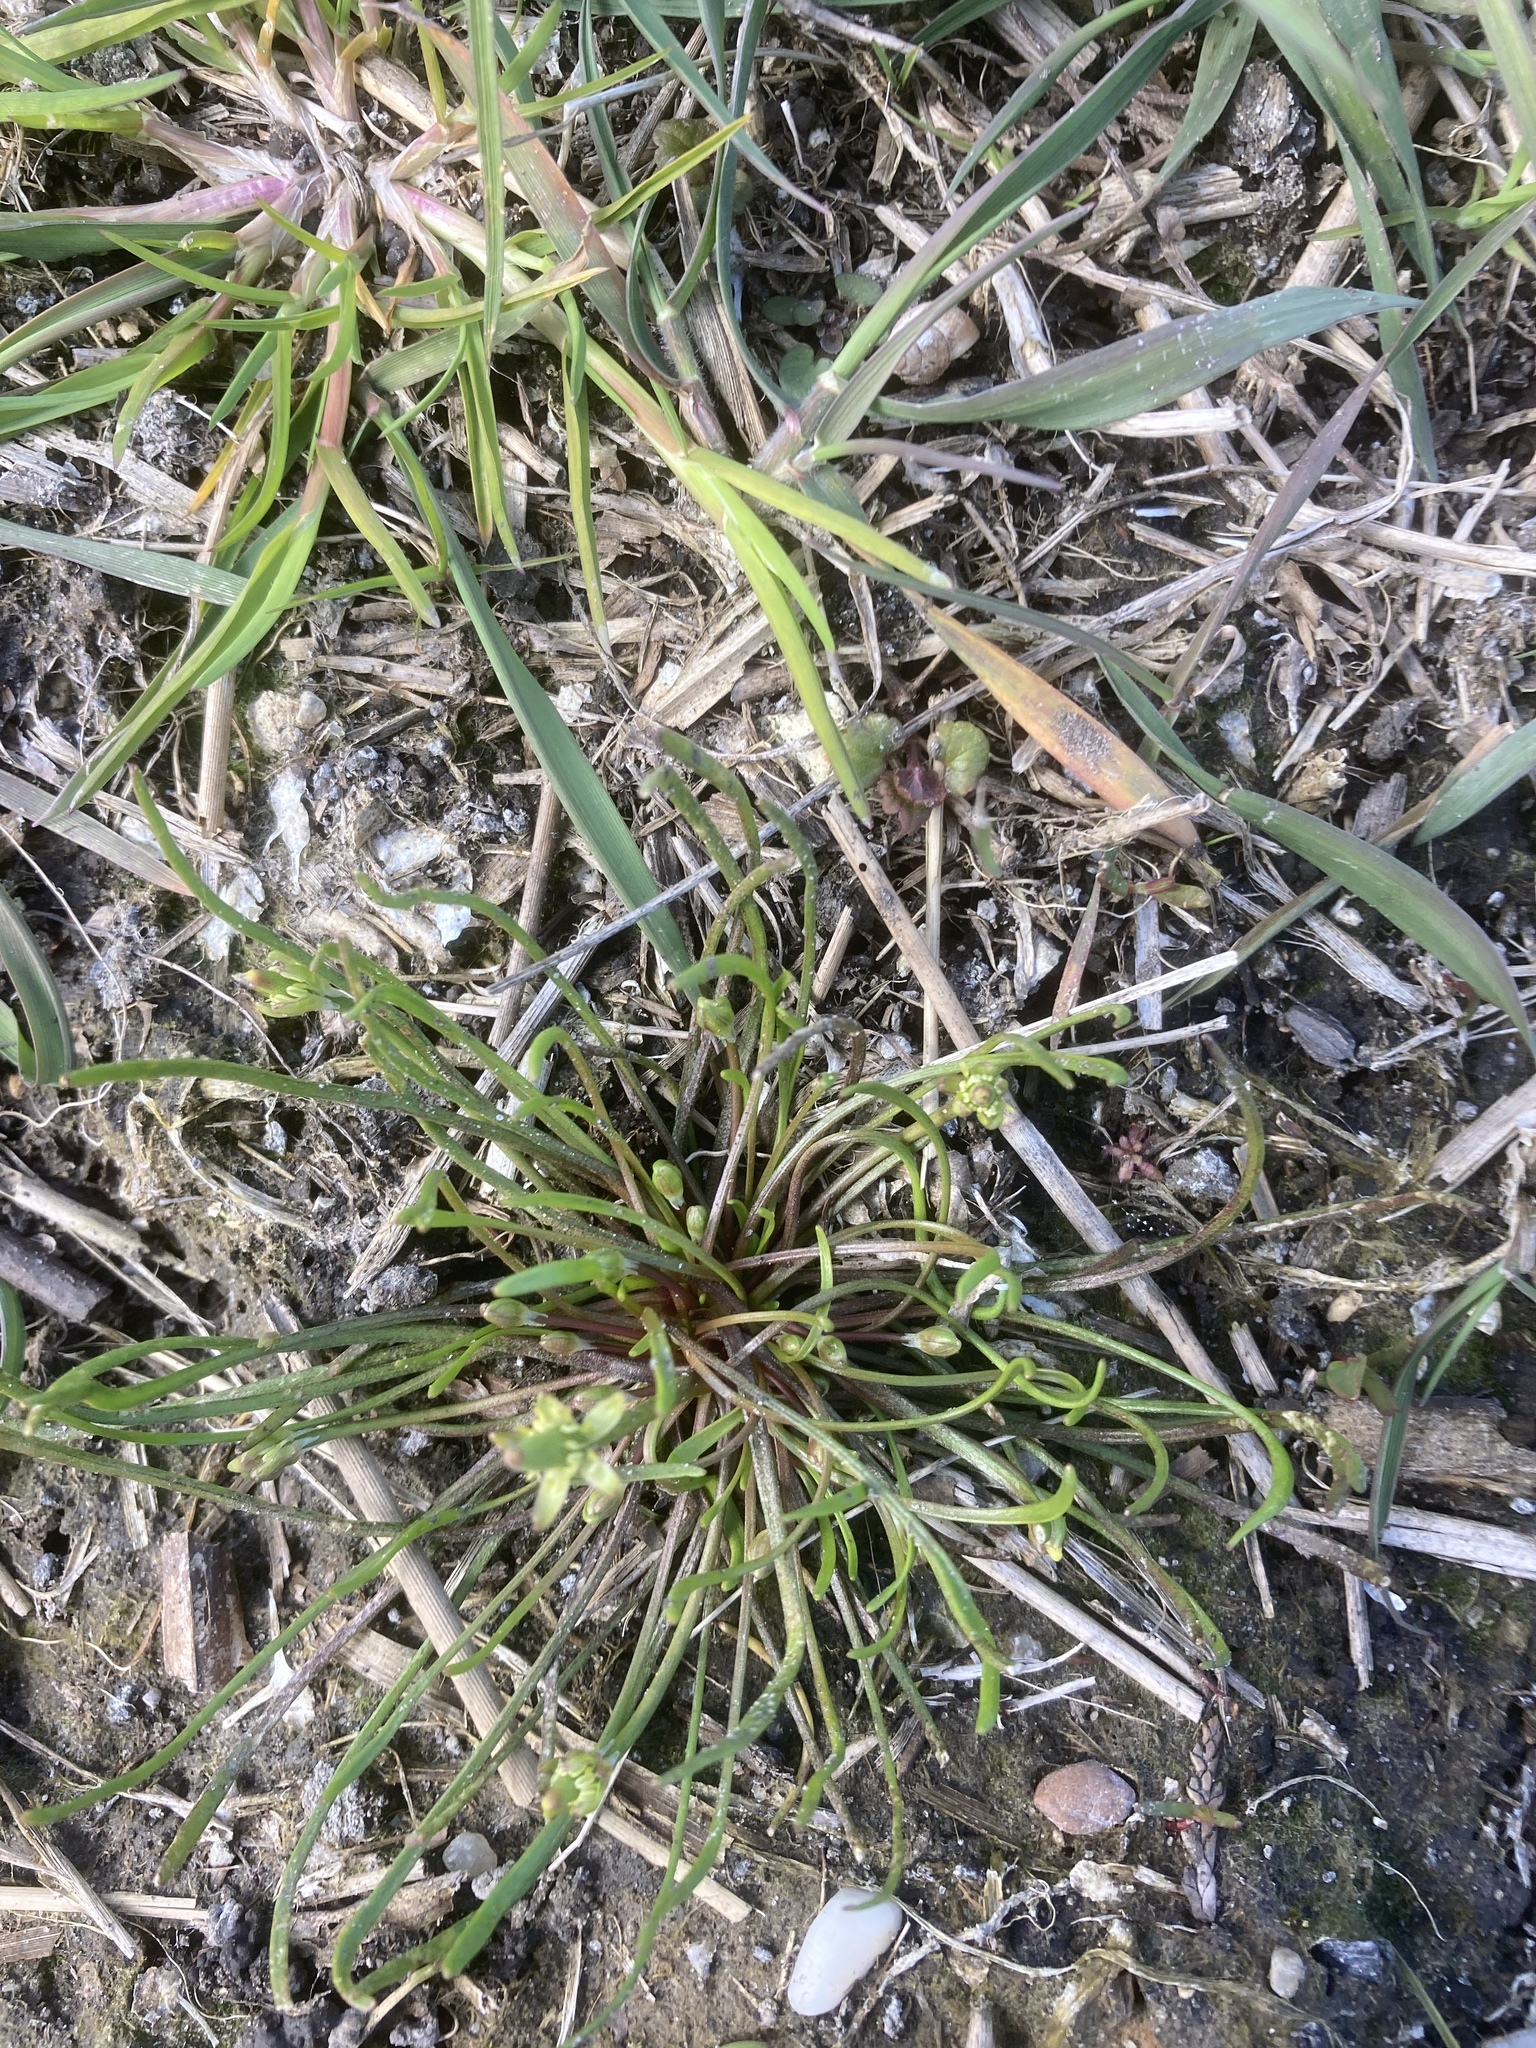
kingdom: Plantae
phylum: Tracheophyta
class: Magnoliopsida
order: Ranunculales
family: Ranunculaceae
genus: Myosurus
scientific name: Myosurus minimus
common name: Mousetail
